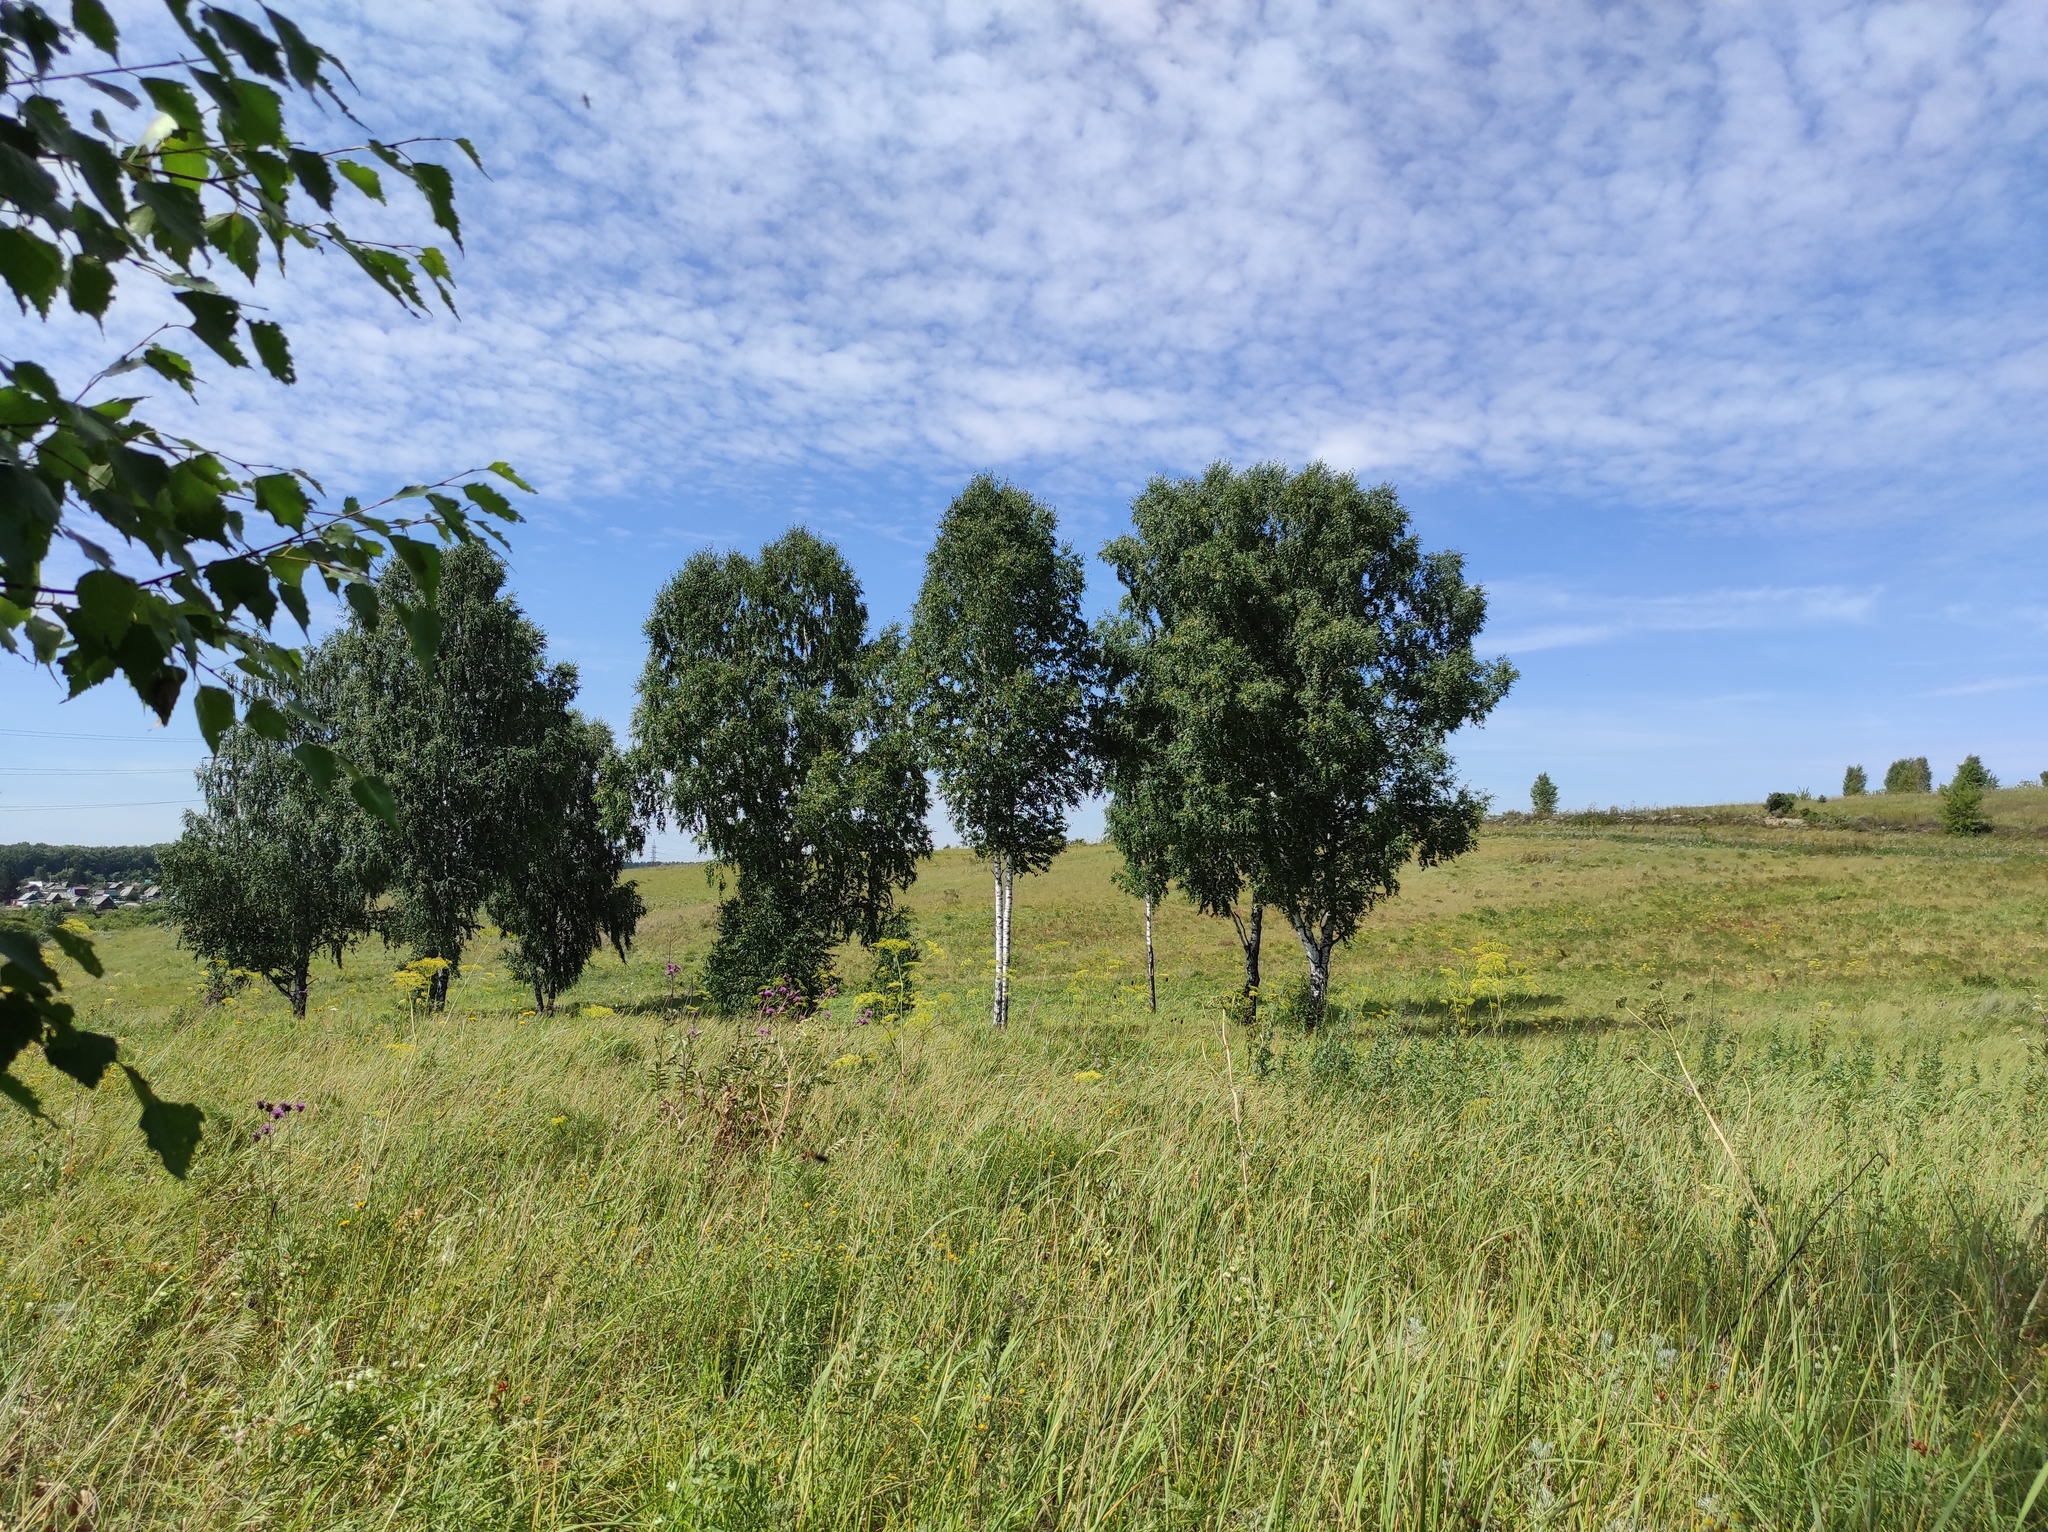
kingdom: Plantae
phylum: Tracheophyta
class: Magnoliopsida
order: Fagales
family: Betulaceae
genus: Betula
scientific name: Betula pendula
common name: Silver birch
